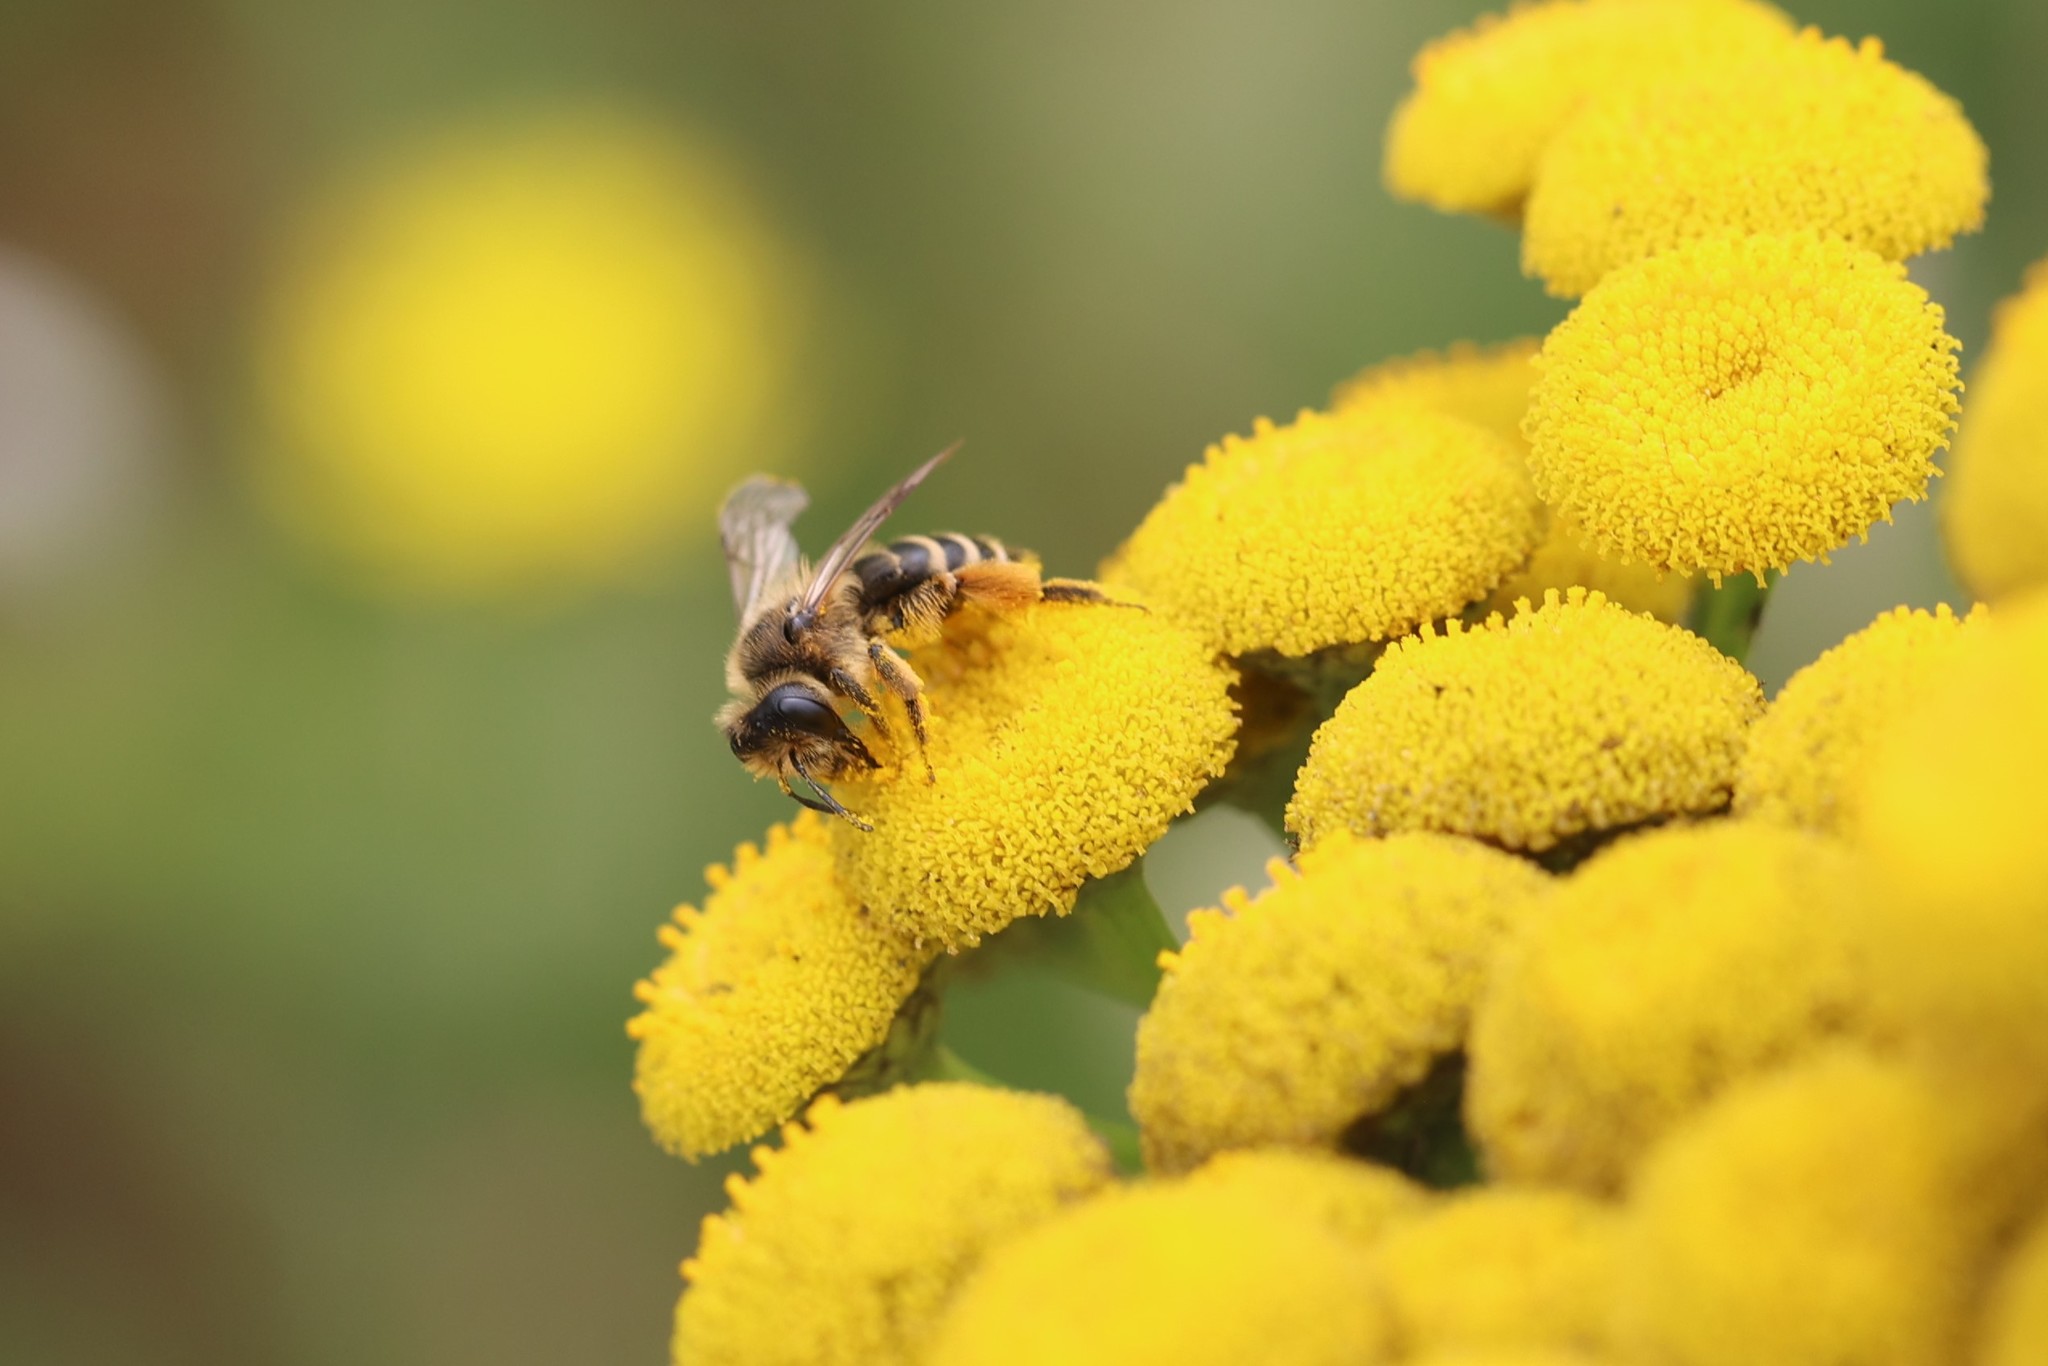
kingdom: Animalia
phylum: Arthropoda
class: Insecta
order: Hymenoptera
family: Andrenidae
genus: Andrena
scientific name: Andrena flavipes
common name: Yellow-legged mining bee
